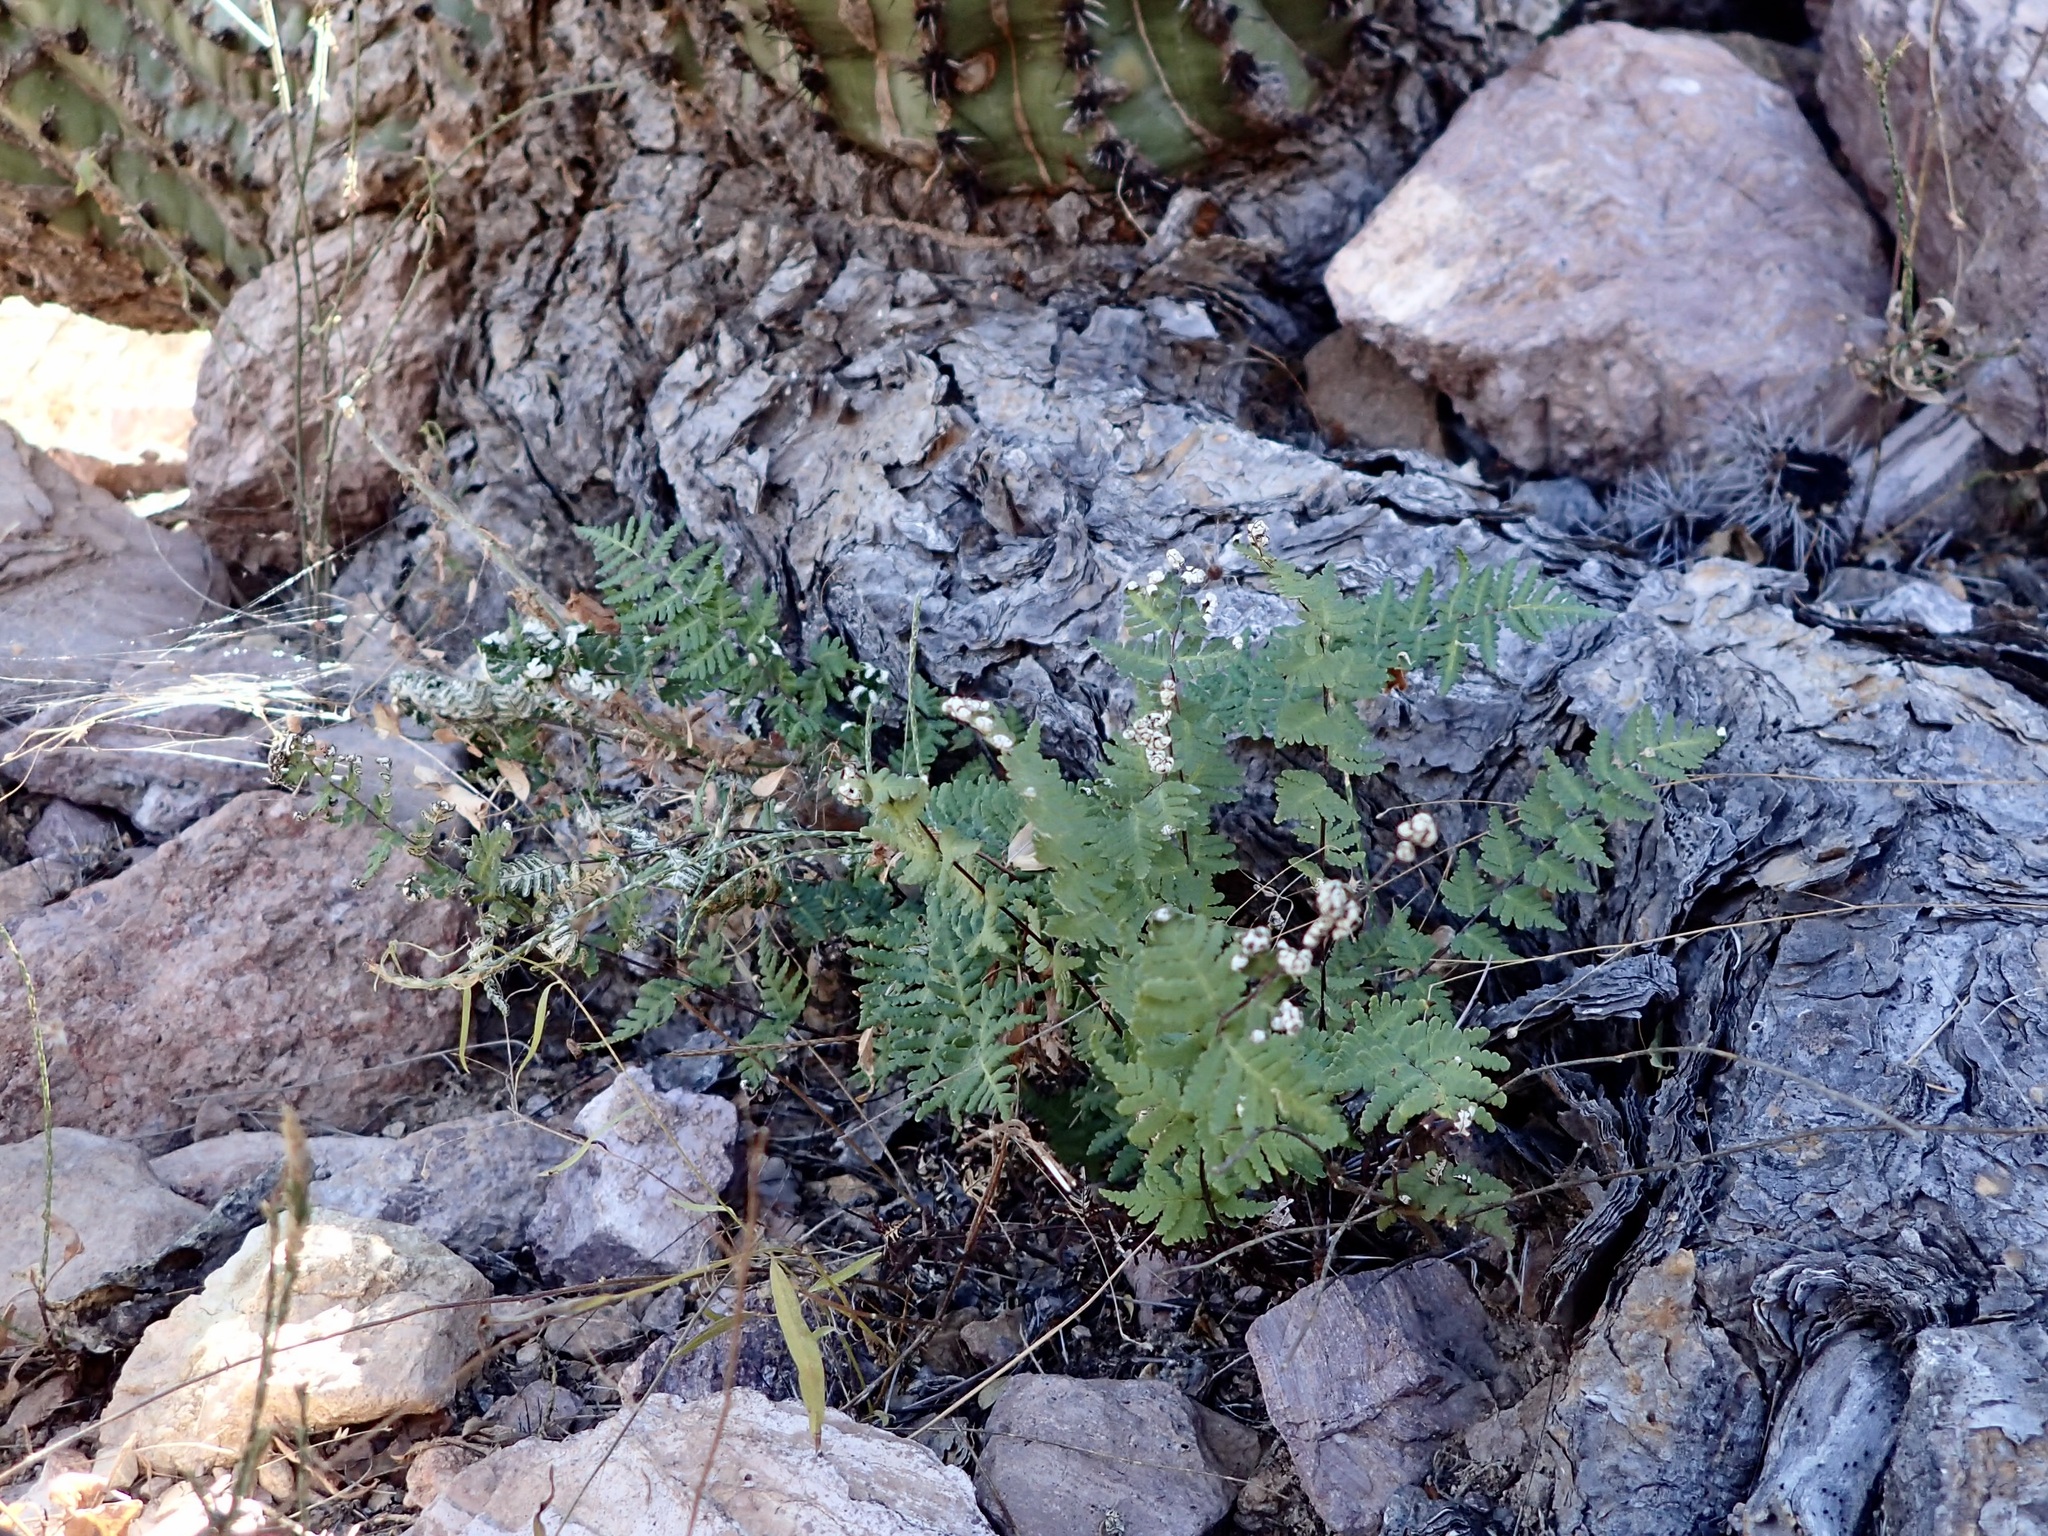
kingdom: Plantae
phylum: Tracheophyta
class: Polypodiopsida
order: Polypodiales
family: Pteridaceae
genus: Notholaena
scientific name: Notholaena lemmonii
